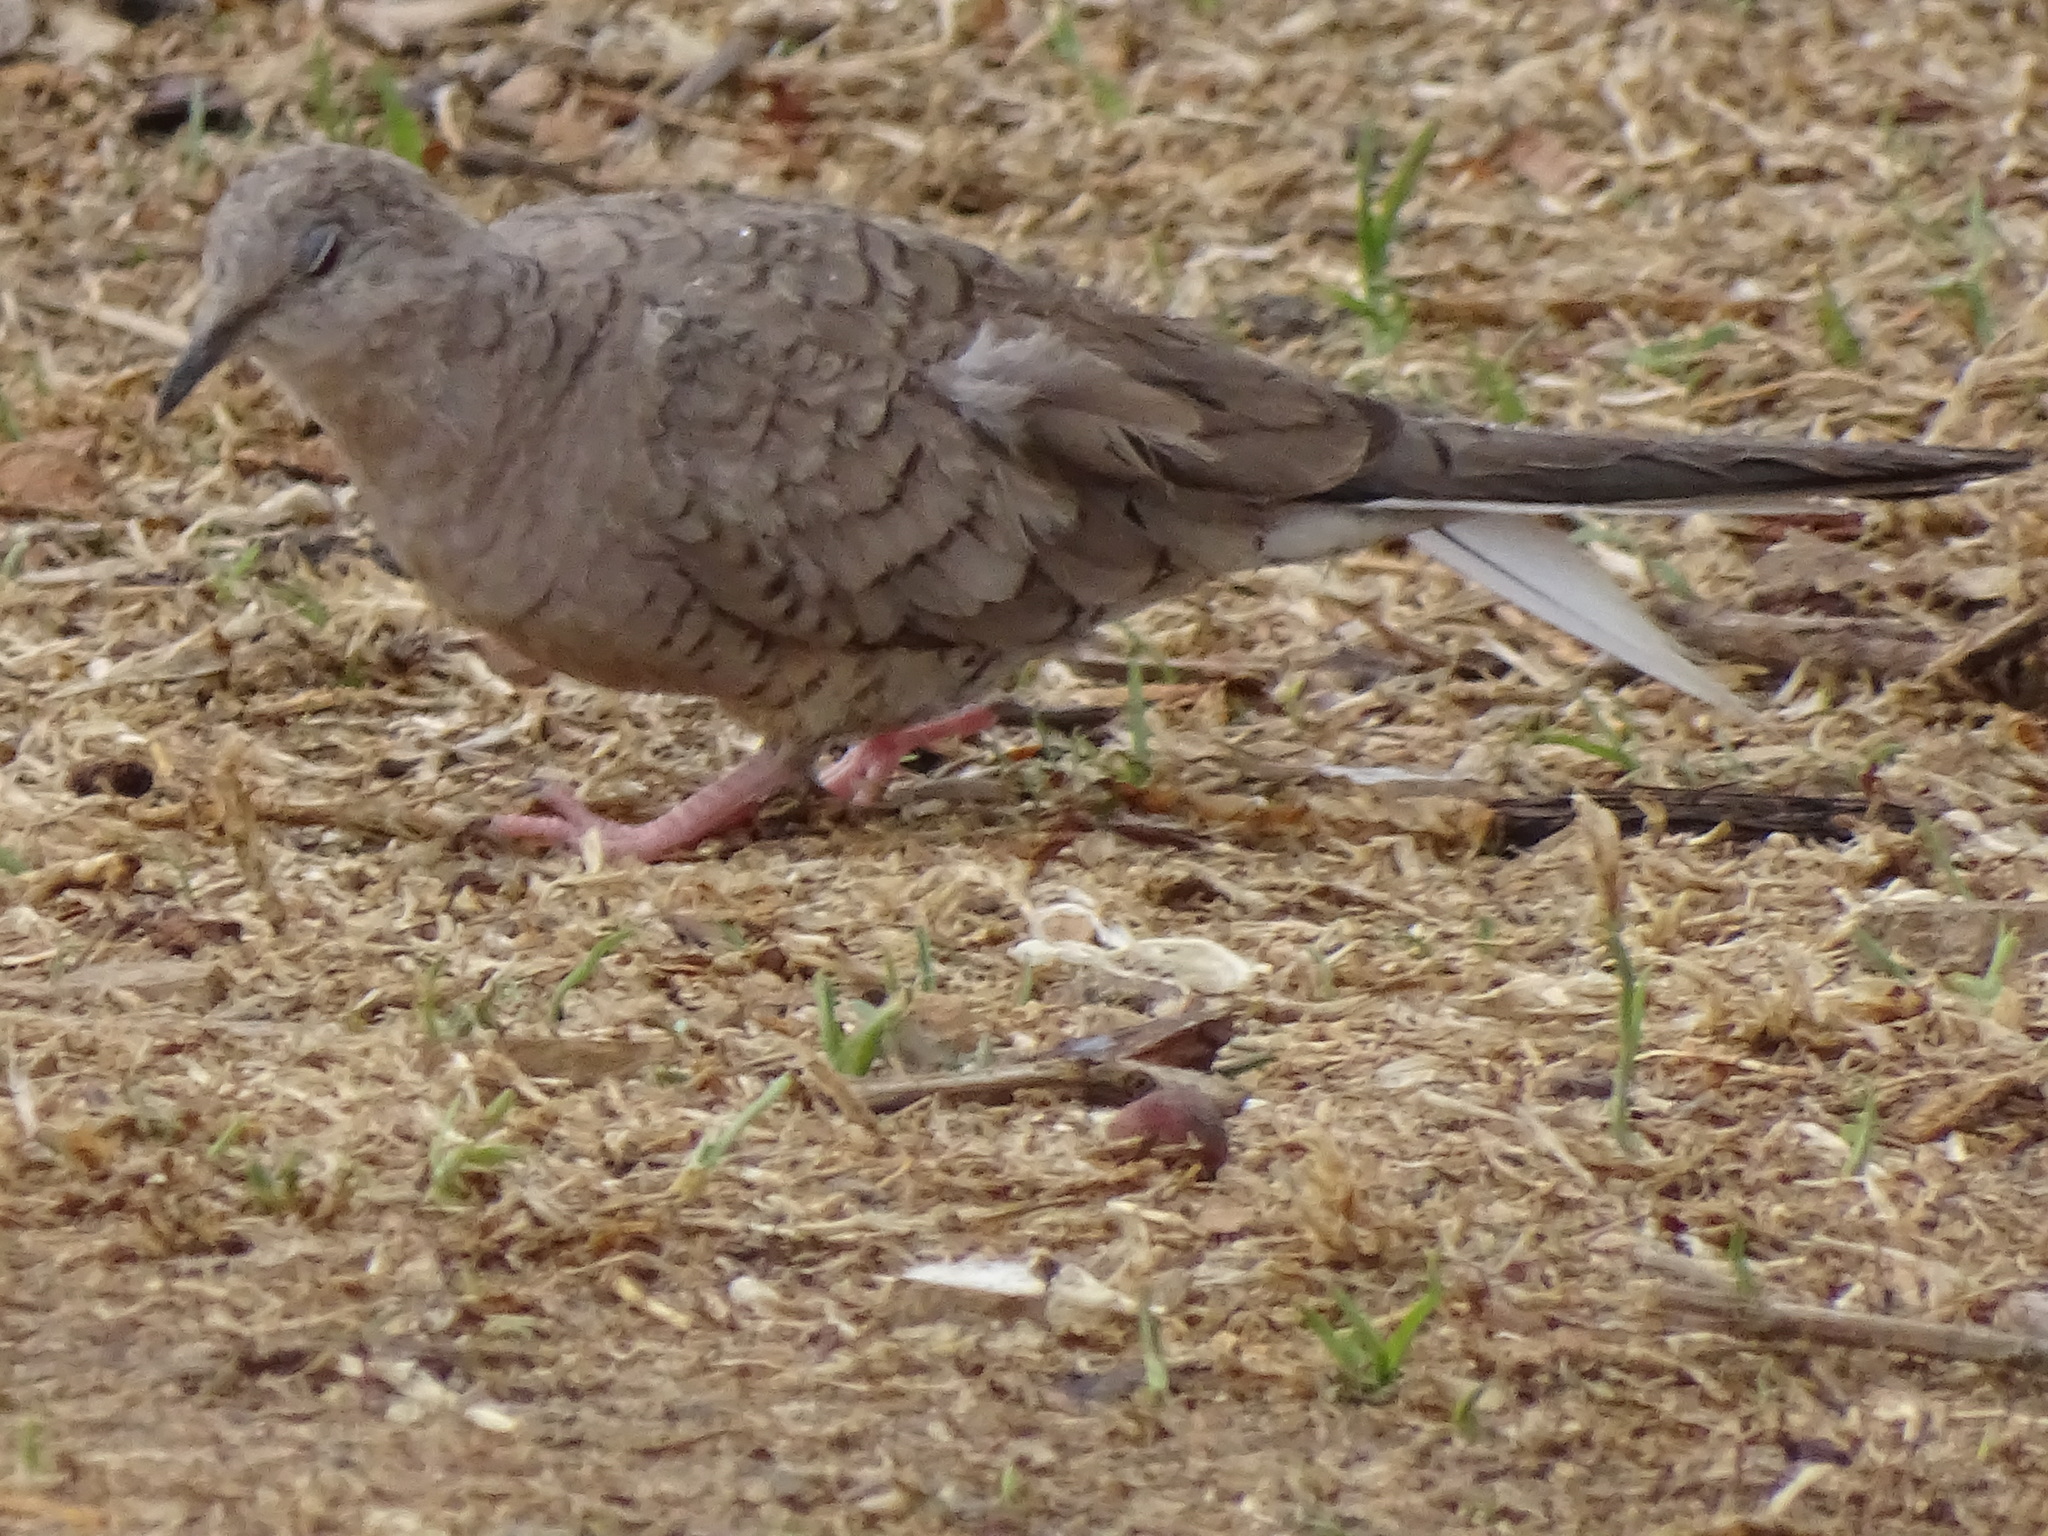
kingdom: Animalia
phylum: Chordata
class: Aves
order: Columbiformes
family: Columbidae
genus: Columbina
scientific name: Columbina inca
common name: Inca dove
